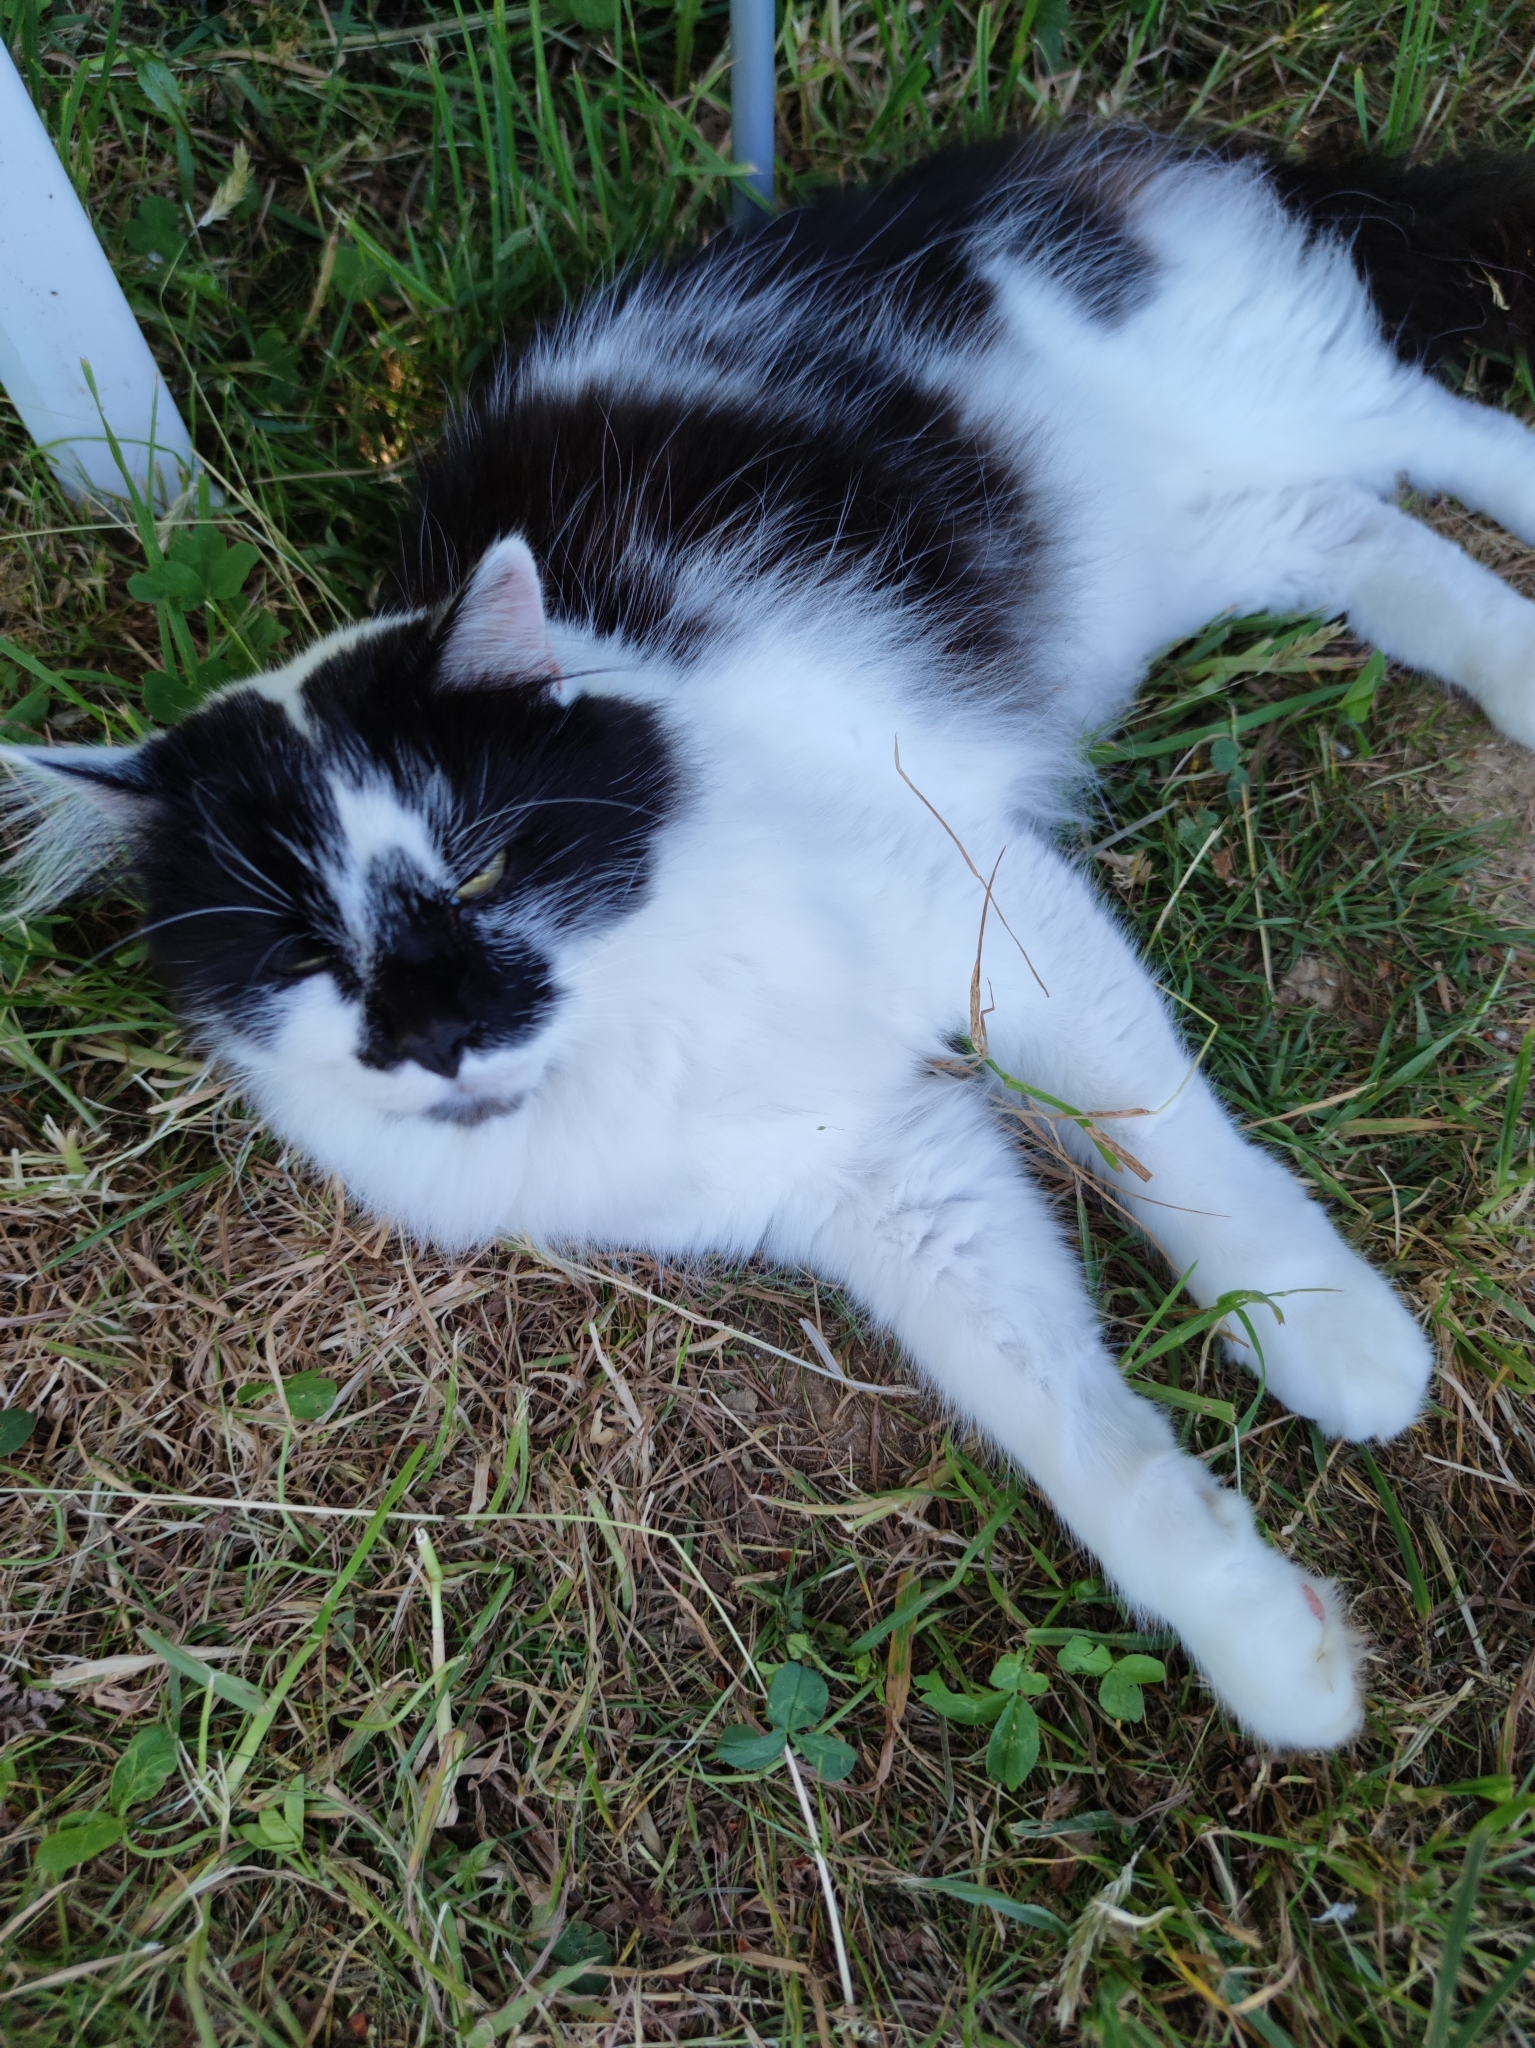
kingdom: Animalia
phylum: Chordata
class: Mammalia
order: Carnivora
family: Felidae
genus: Felis
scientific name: Felis catus
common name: Domestic cat
